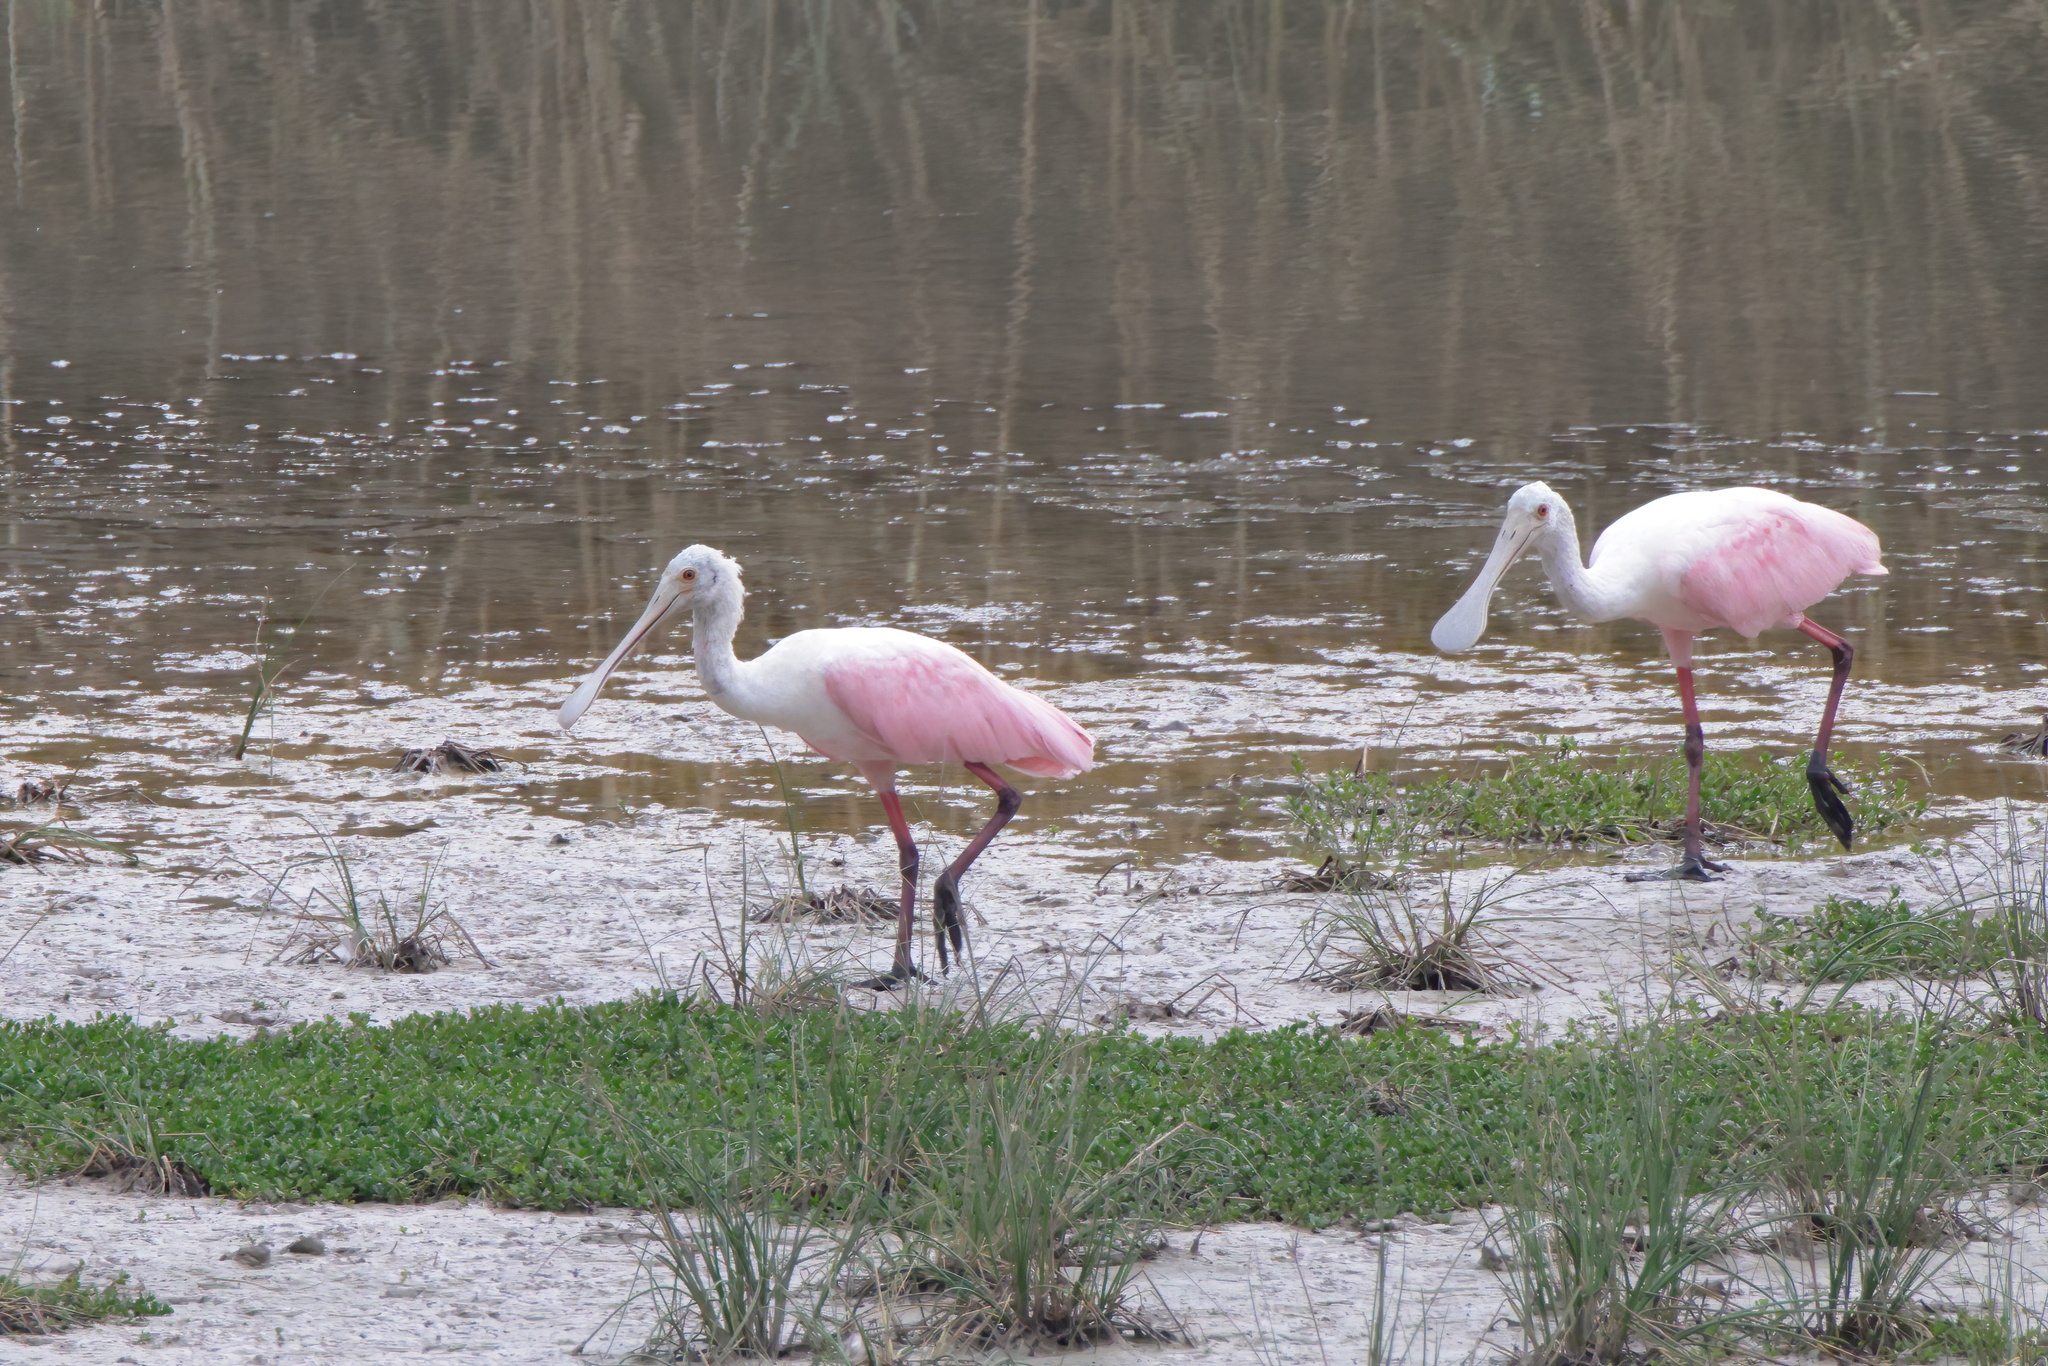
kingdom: Animalia
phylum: Chordata
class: Aves
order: Pelecaniformes
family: Threskiornithidae
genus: Platalea
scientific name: Platalea ajaja
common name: Roseate spoonbill
